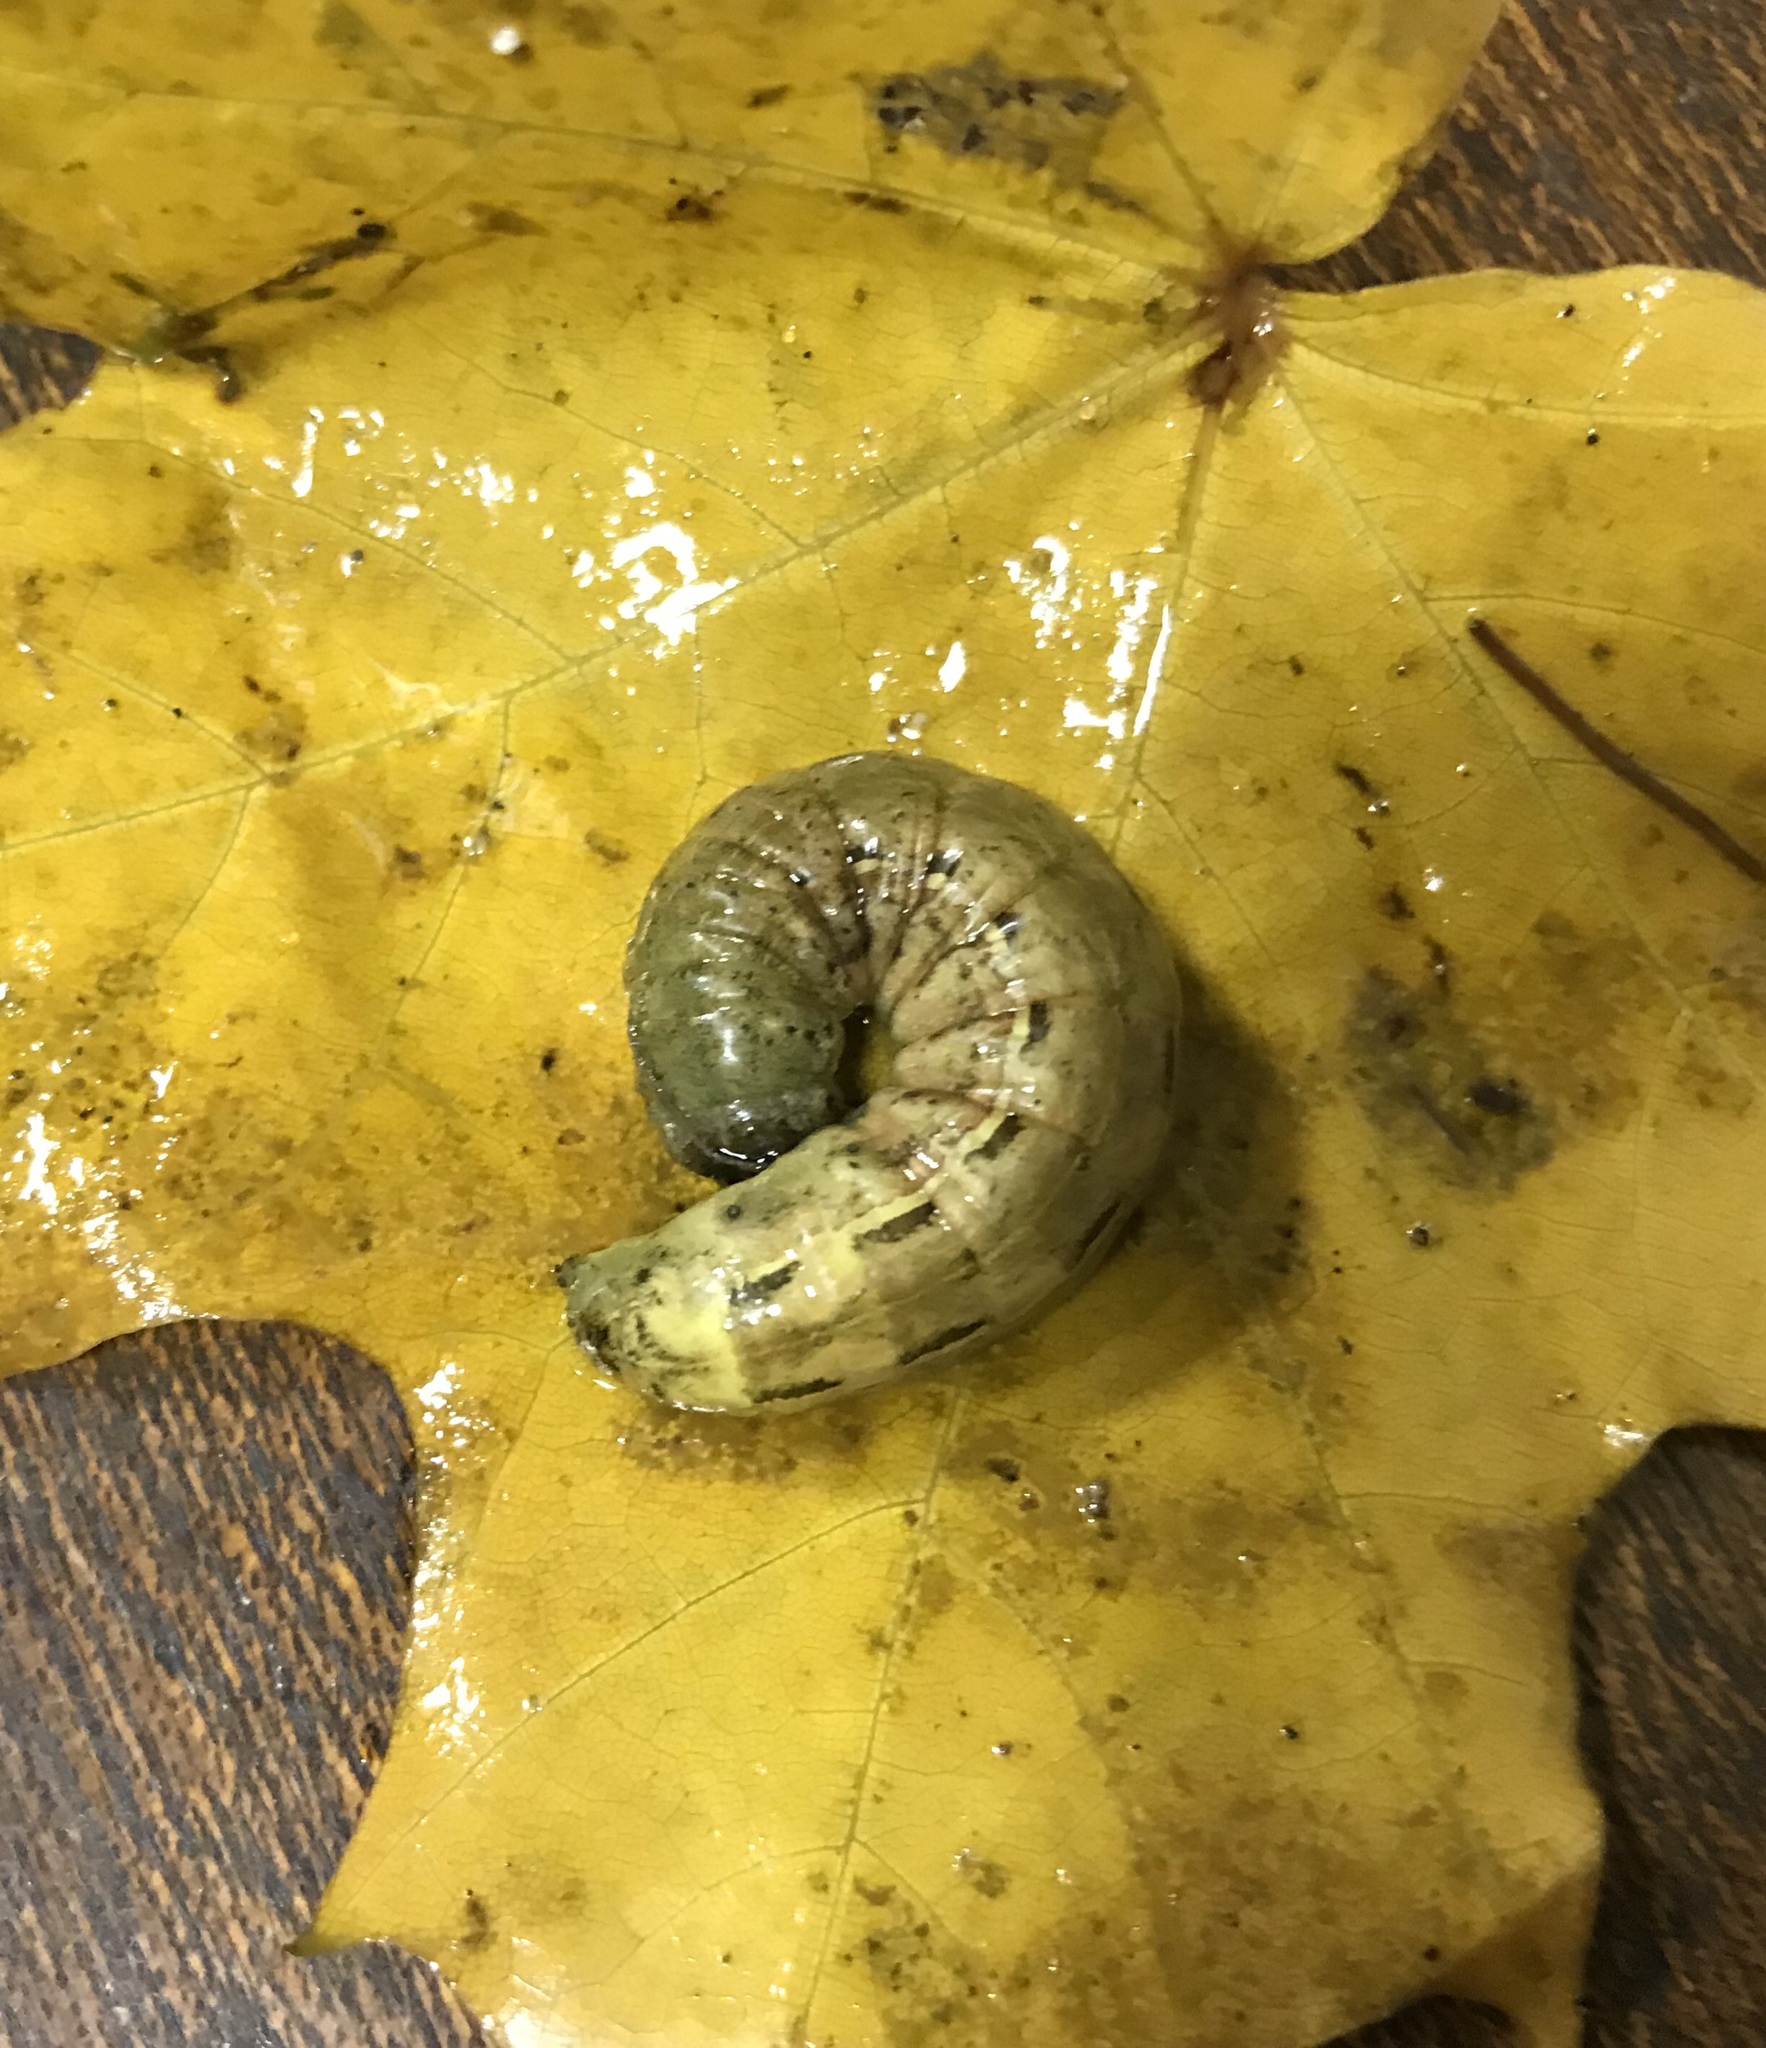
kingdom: Animalia
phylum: Arthropoda
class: Insecta
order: Lepidoptera
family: Noctuidae
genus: Noctua
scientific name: Noctua pronuba
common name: Large yellow underwing
